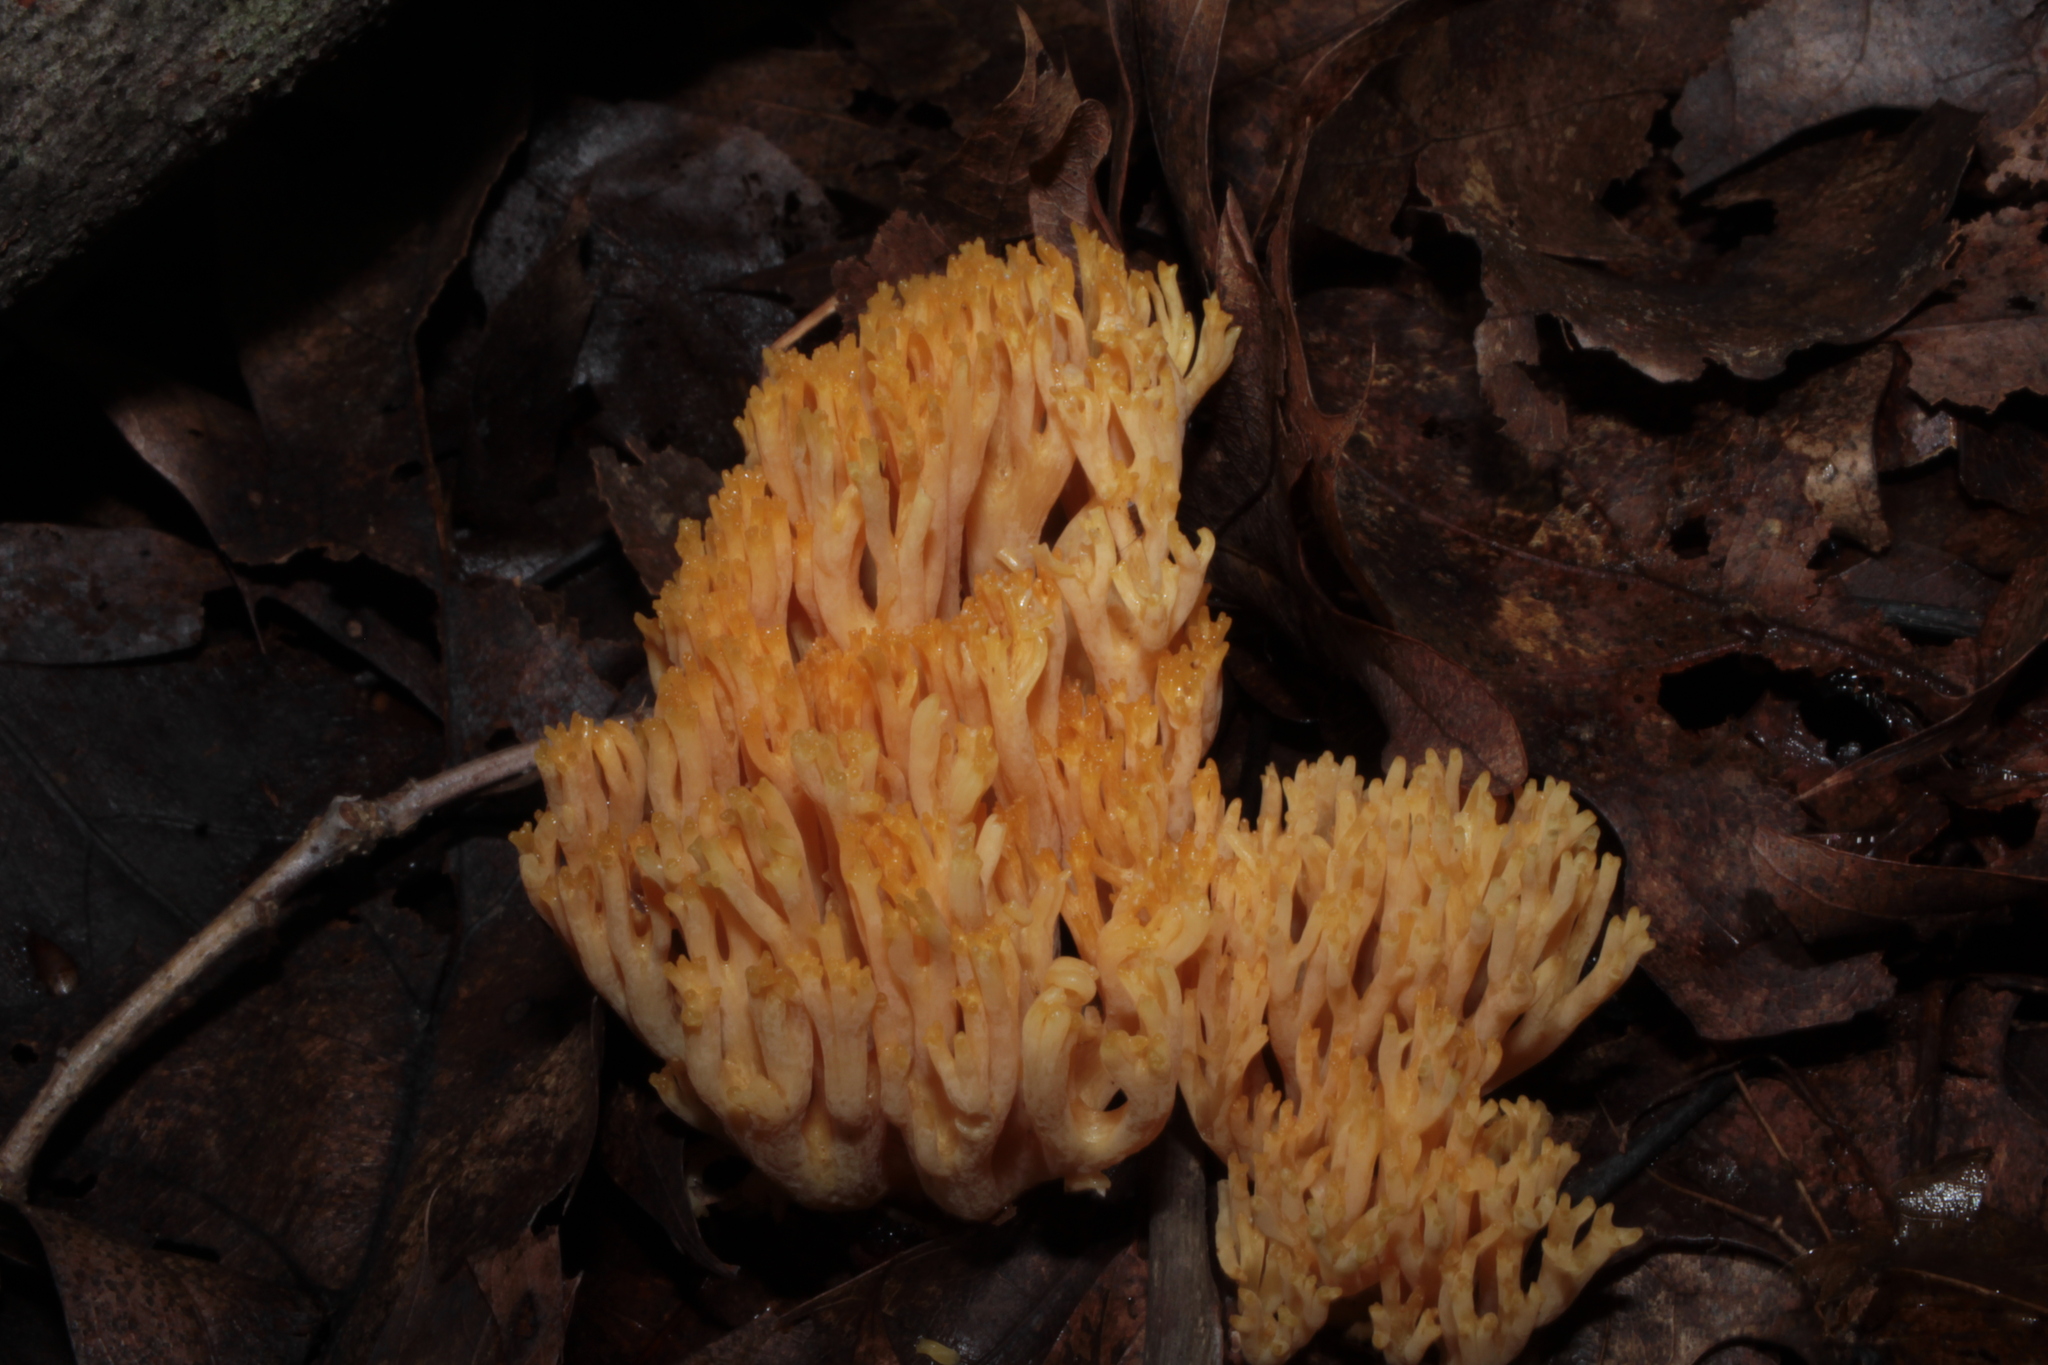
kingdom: Fungi
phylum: Basidiomycota
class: Agaricomycetes
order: Gomphales
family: Gomphaceae
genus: Ramaria
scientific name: Ramaria calvodistalis
